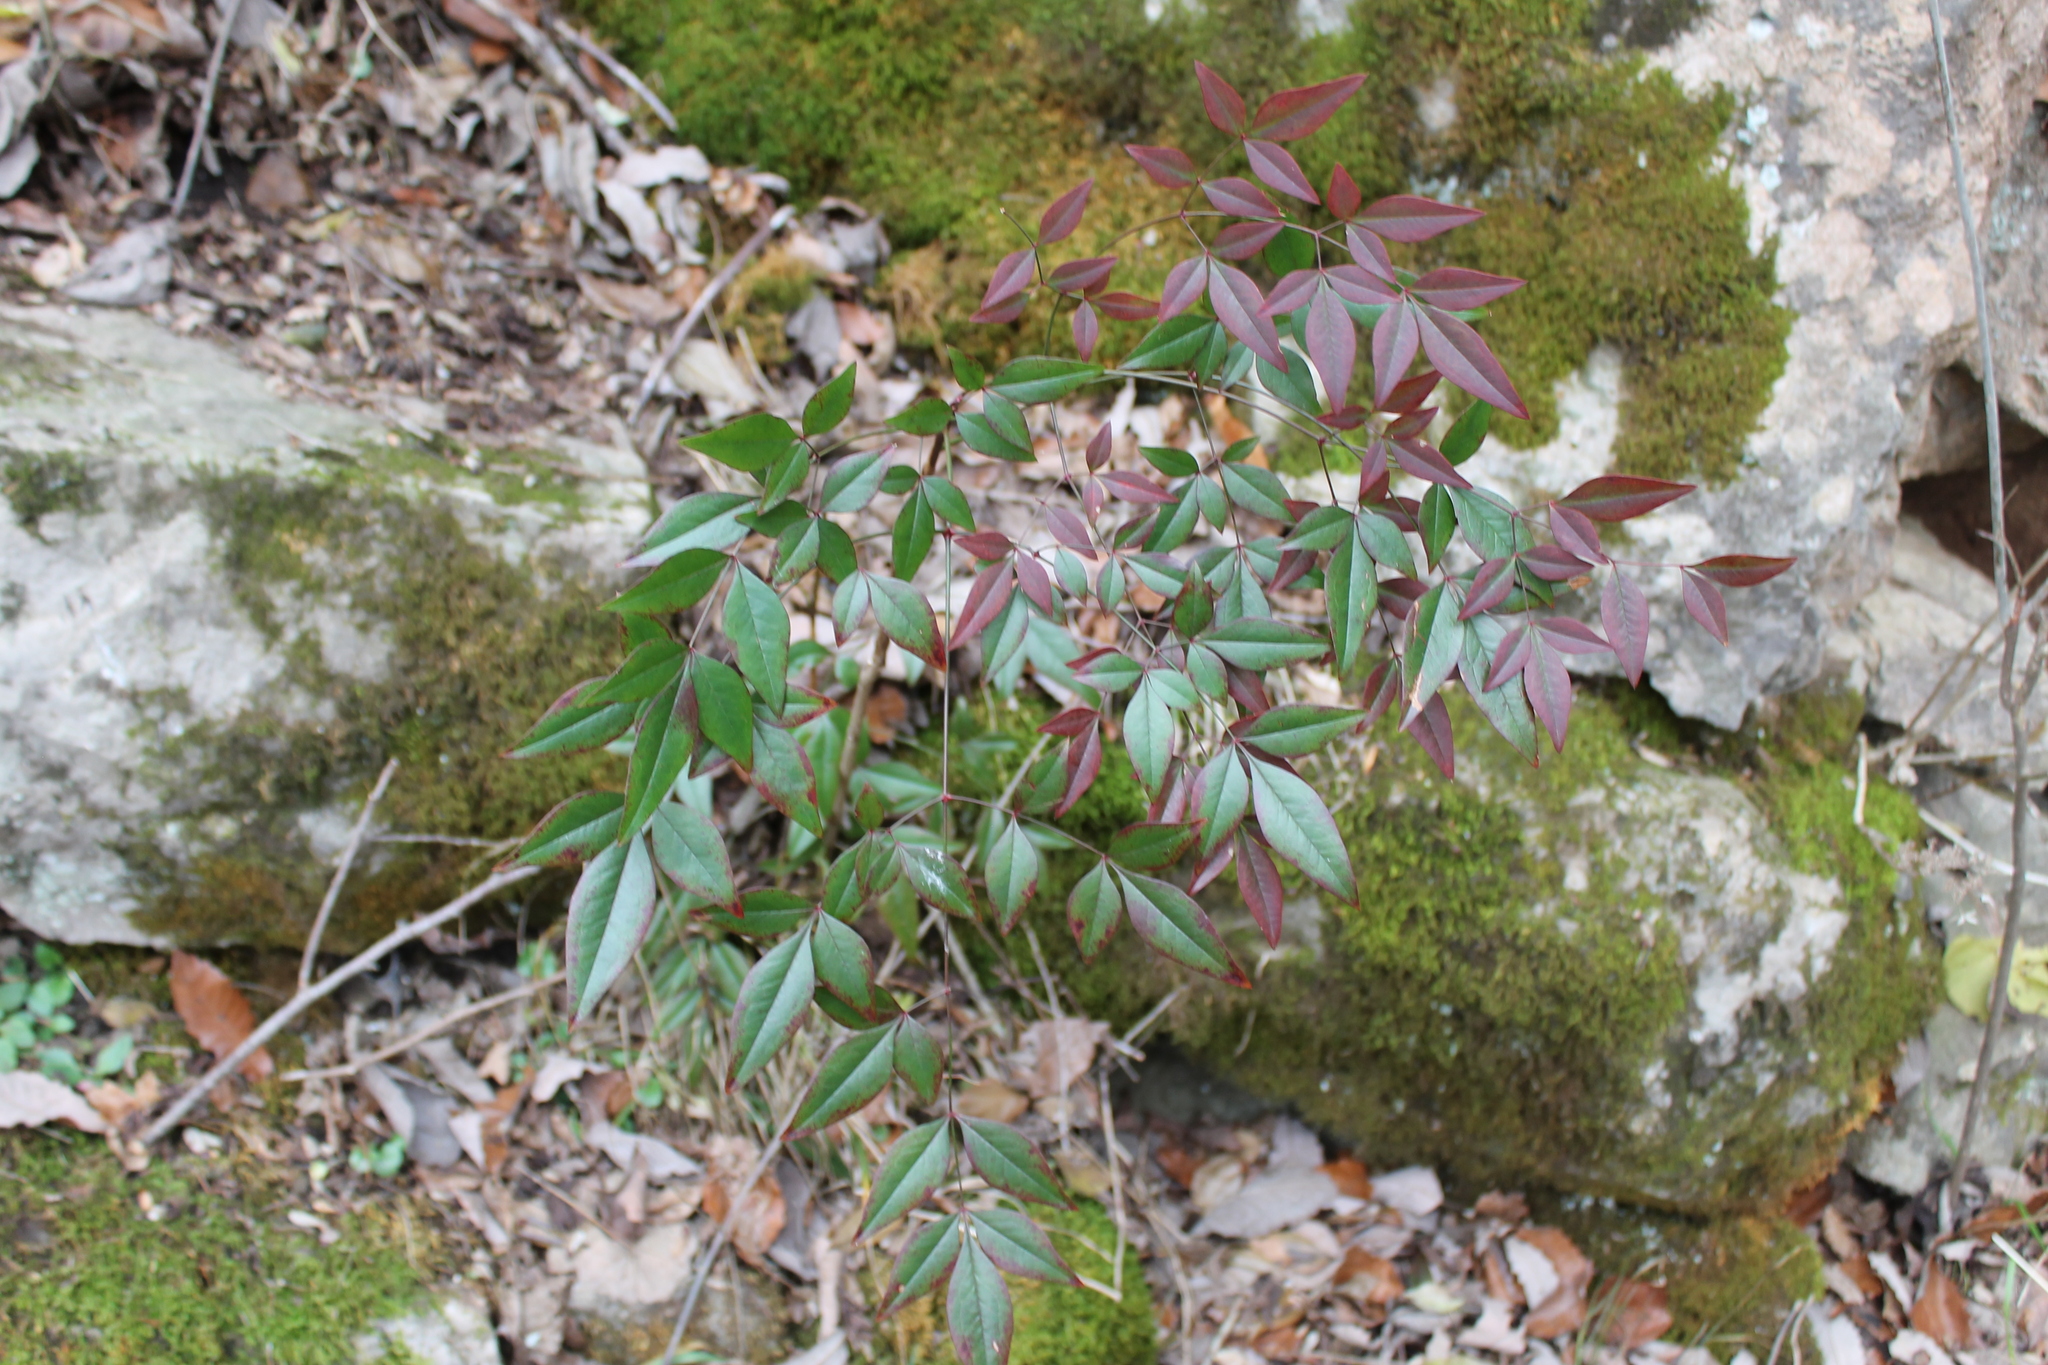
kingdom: Plantae
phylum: Tracheophyta
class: Magnoliopsida
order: Ranunculales
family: Berberidaceae
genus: Nandina
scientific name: Nandina domestica
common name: Sacred bamboo
